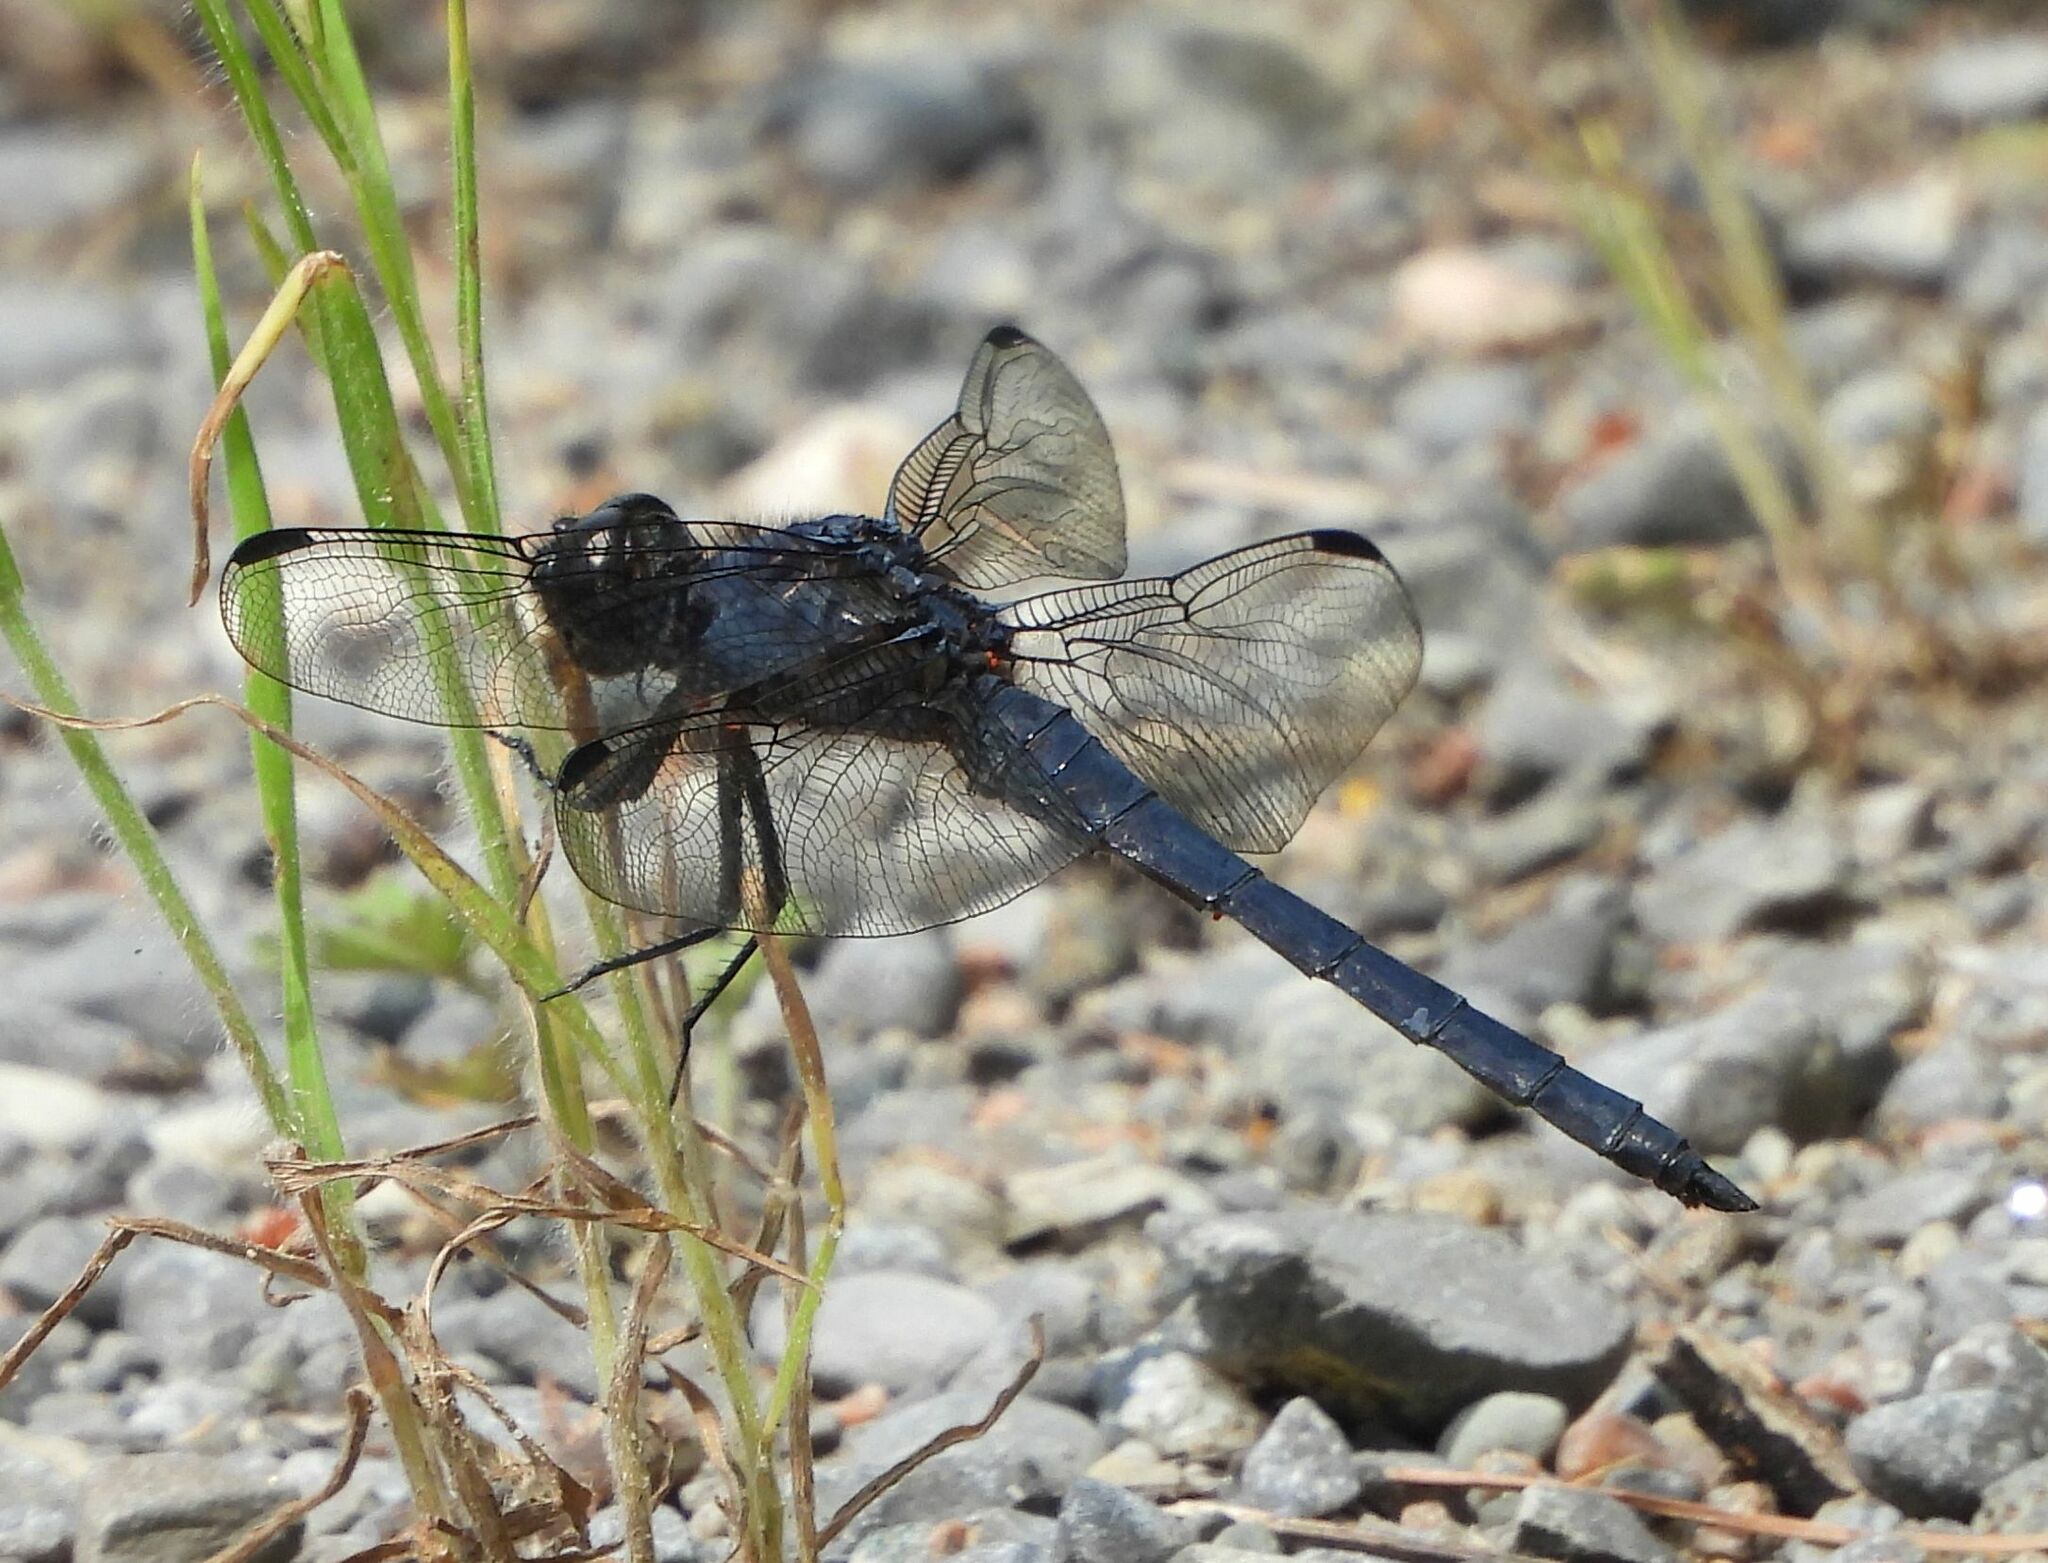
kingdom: Animalia
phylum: Arthropoda
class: Insecta
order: Odonata
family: Libellulidae
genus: Libellula
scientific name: Libellula incesta
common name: Slaty skimmer
